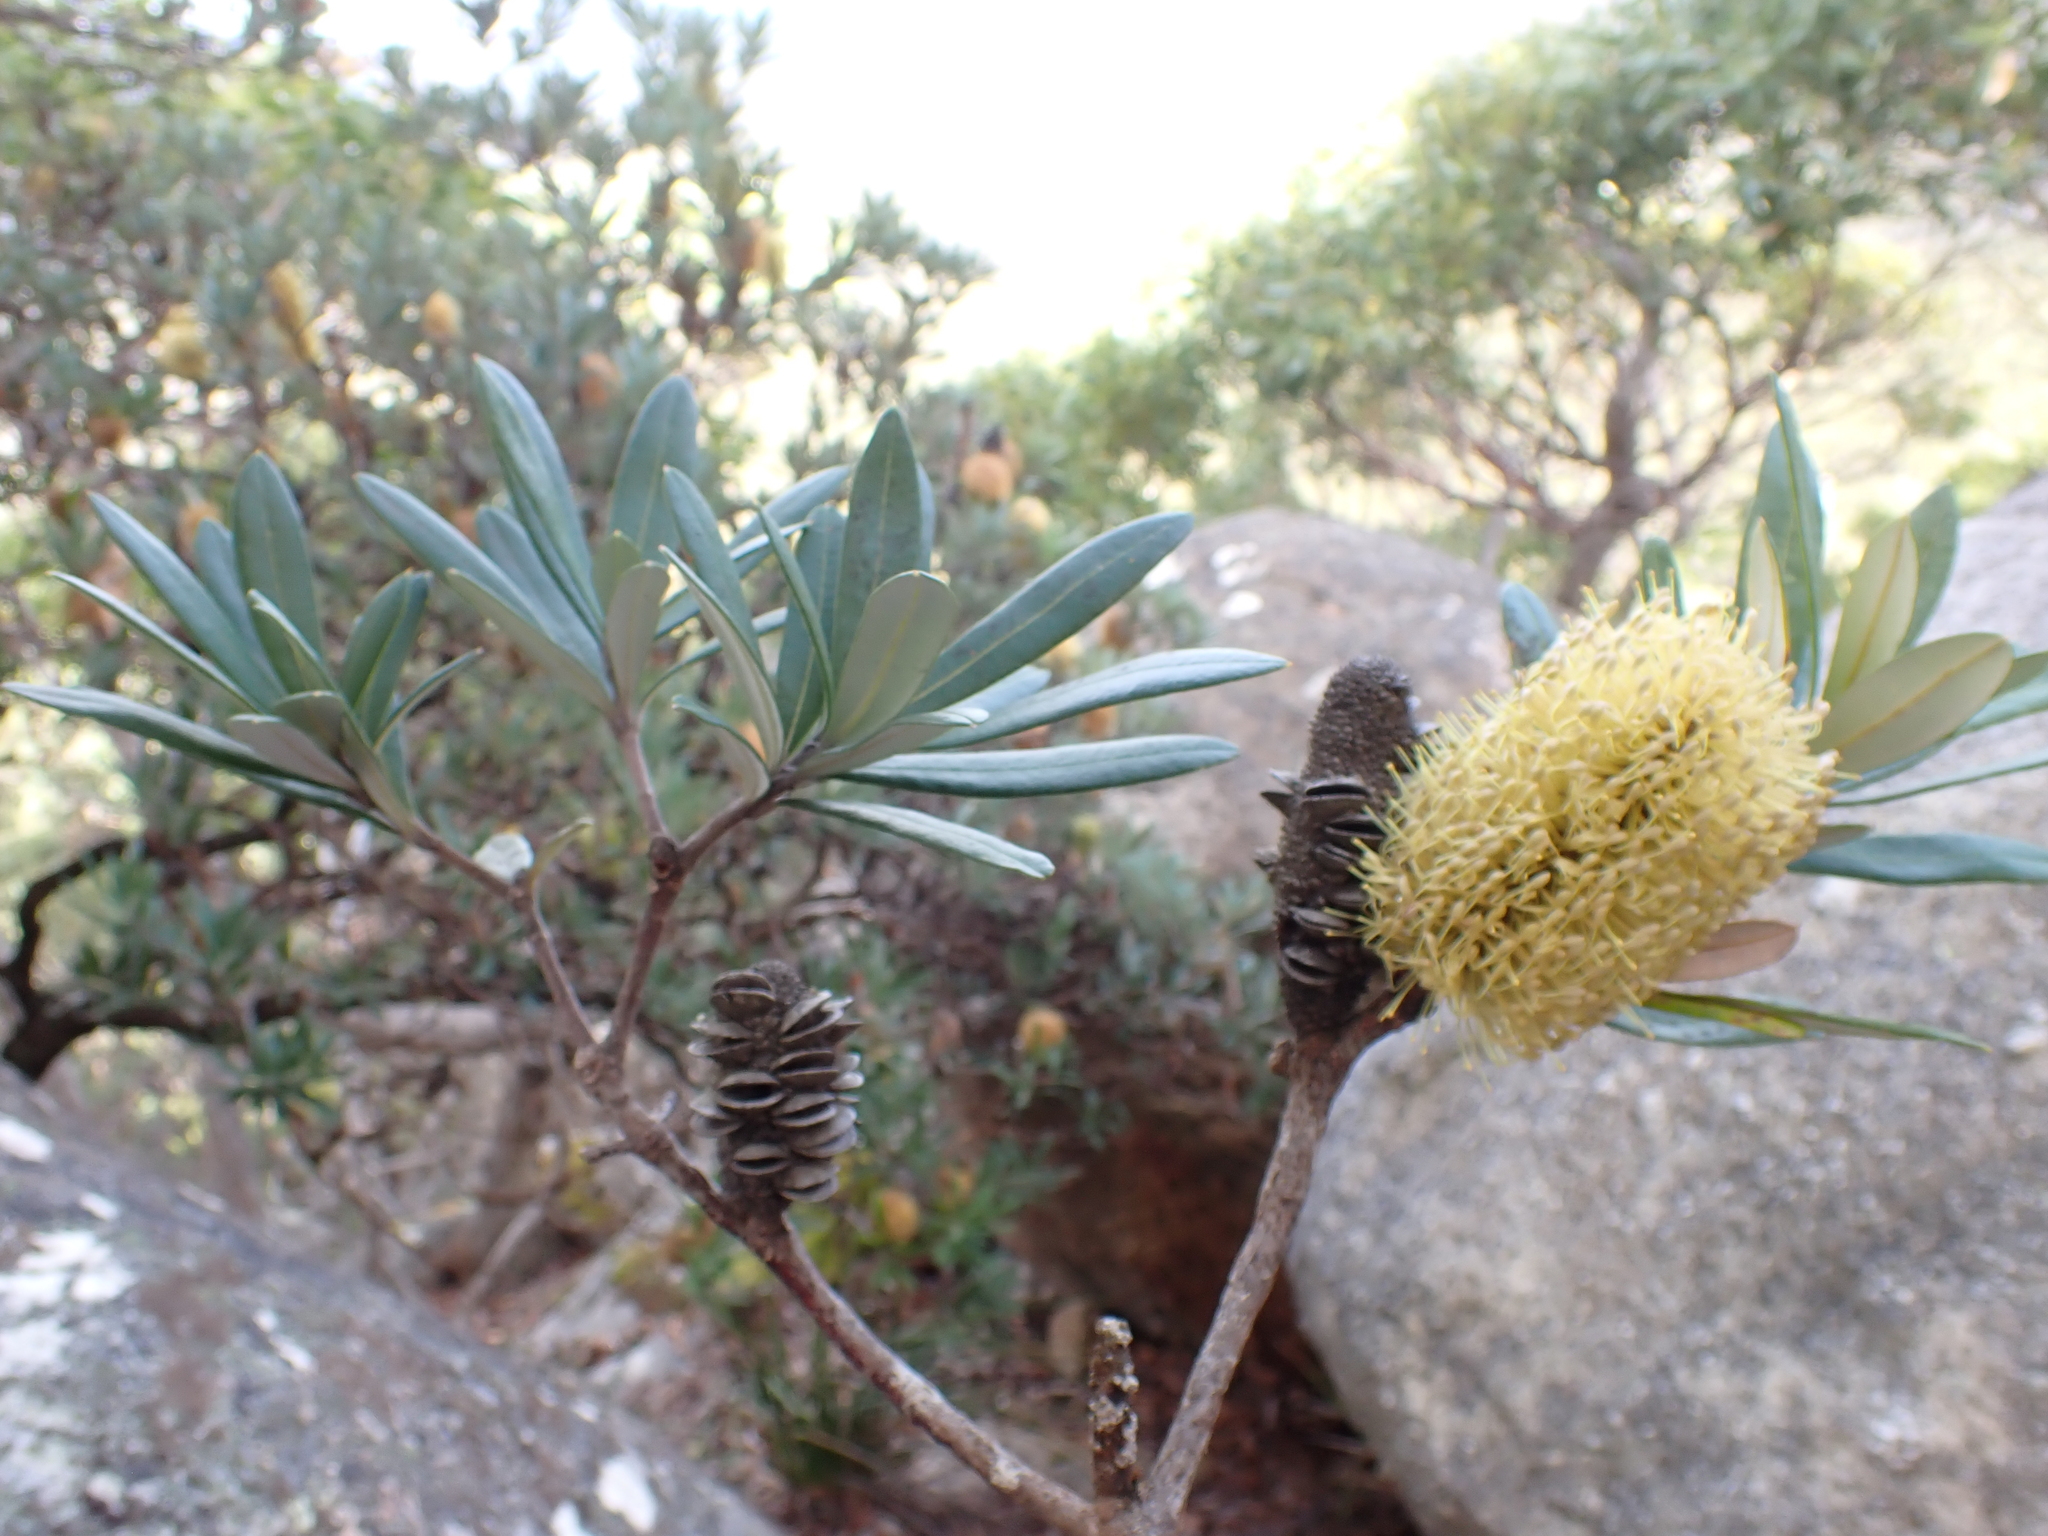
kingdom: Plantae
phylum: Tracheophyta
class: Magnoliopsida
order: Proteales
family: Proteaceae
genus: Banksia
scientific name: Banksia integrifolia
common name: White-honeysuckle
